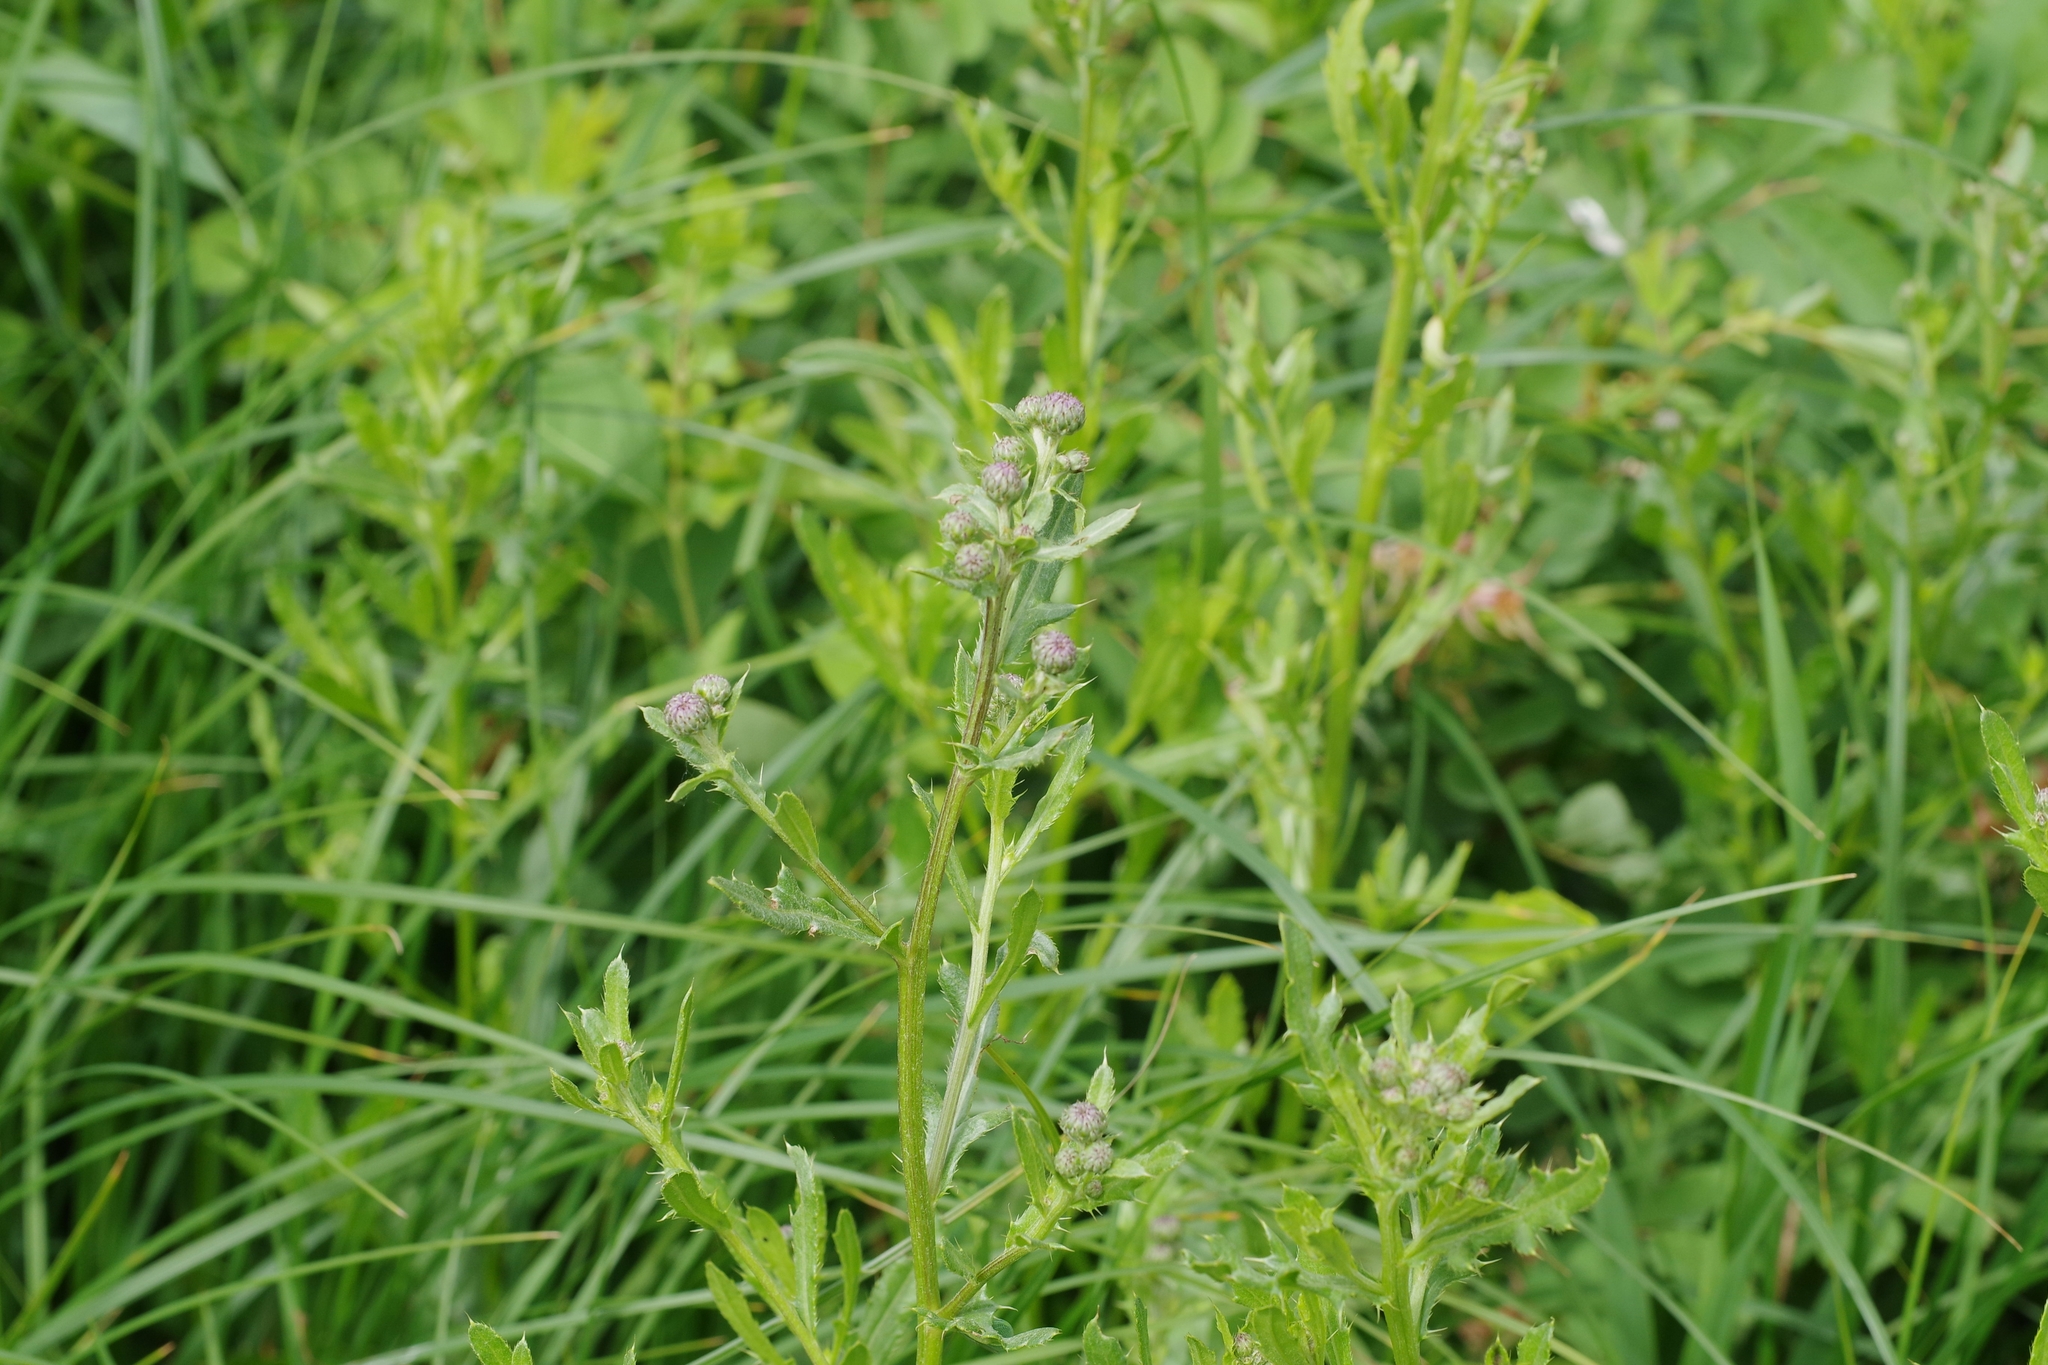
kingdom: Plantae
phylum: Tracheophyta
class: Magnoliopsida
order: Asterales
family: Asteraceae
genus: Cirsium
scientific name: Cirsium arvense
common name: Creeping thistle
